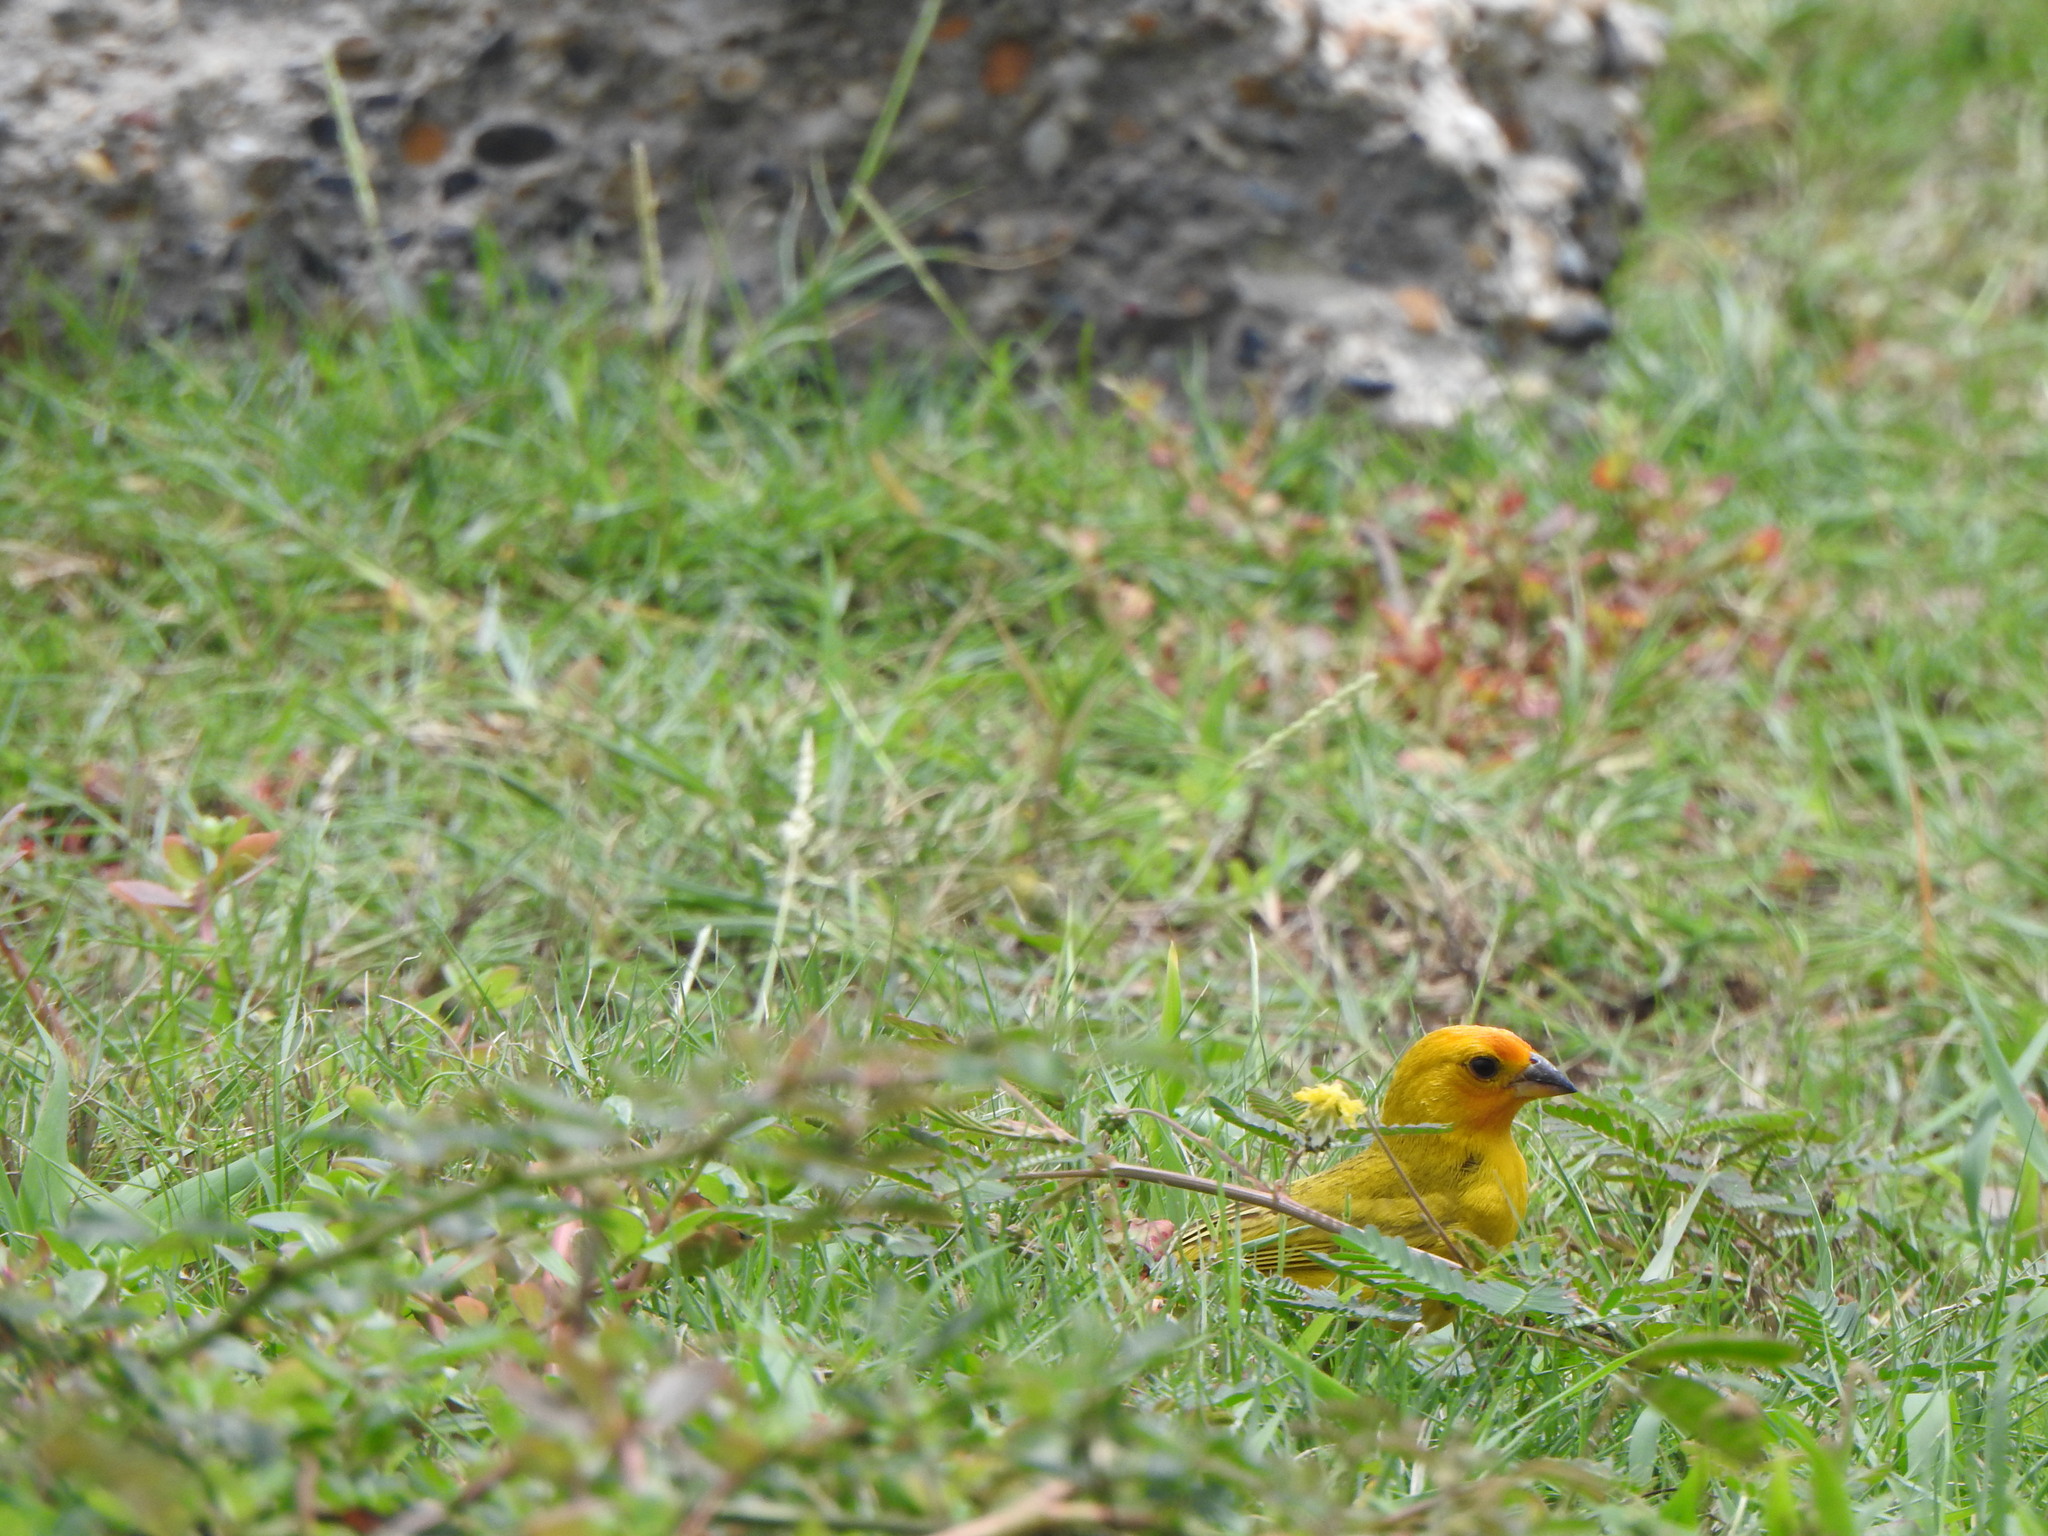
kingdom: Animalia
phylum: Chordata
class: Aves
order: Passeriformes
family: Thraupidae
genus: Sicalis
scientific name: Sicalis flaveola
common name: Saffron finch
